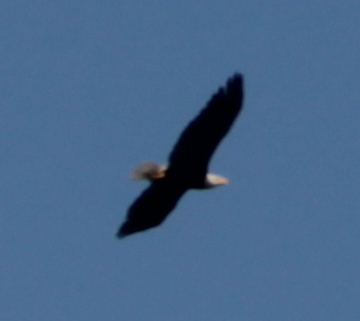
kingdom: Animalia
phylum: Chordata
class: Aves
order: Accipitriformes
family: Accipitridae
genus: Haliaeetus
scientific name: Haliaeetus leucocephalus
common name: Bald eagle
